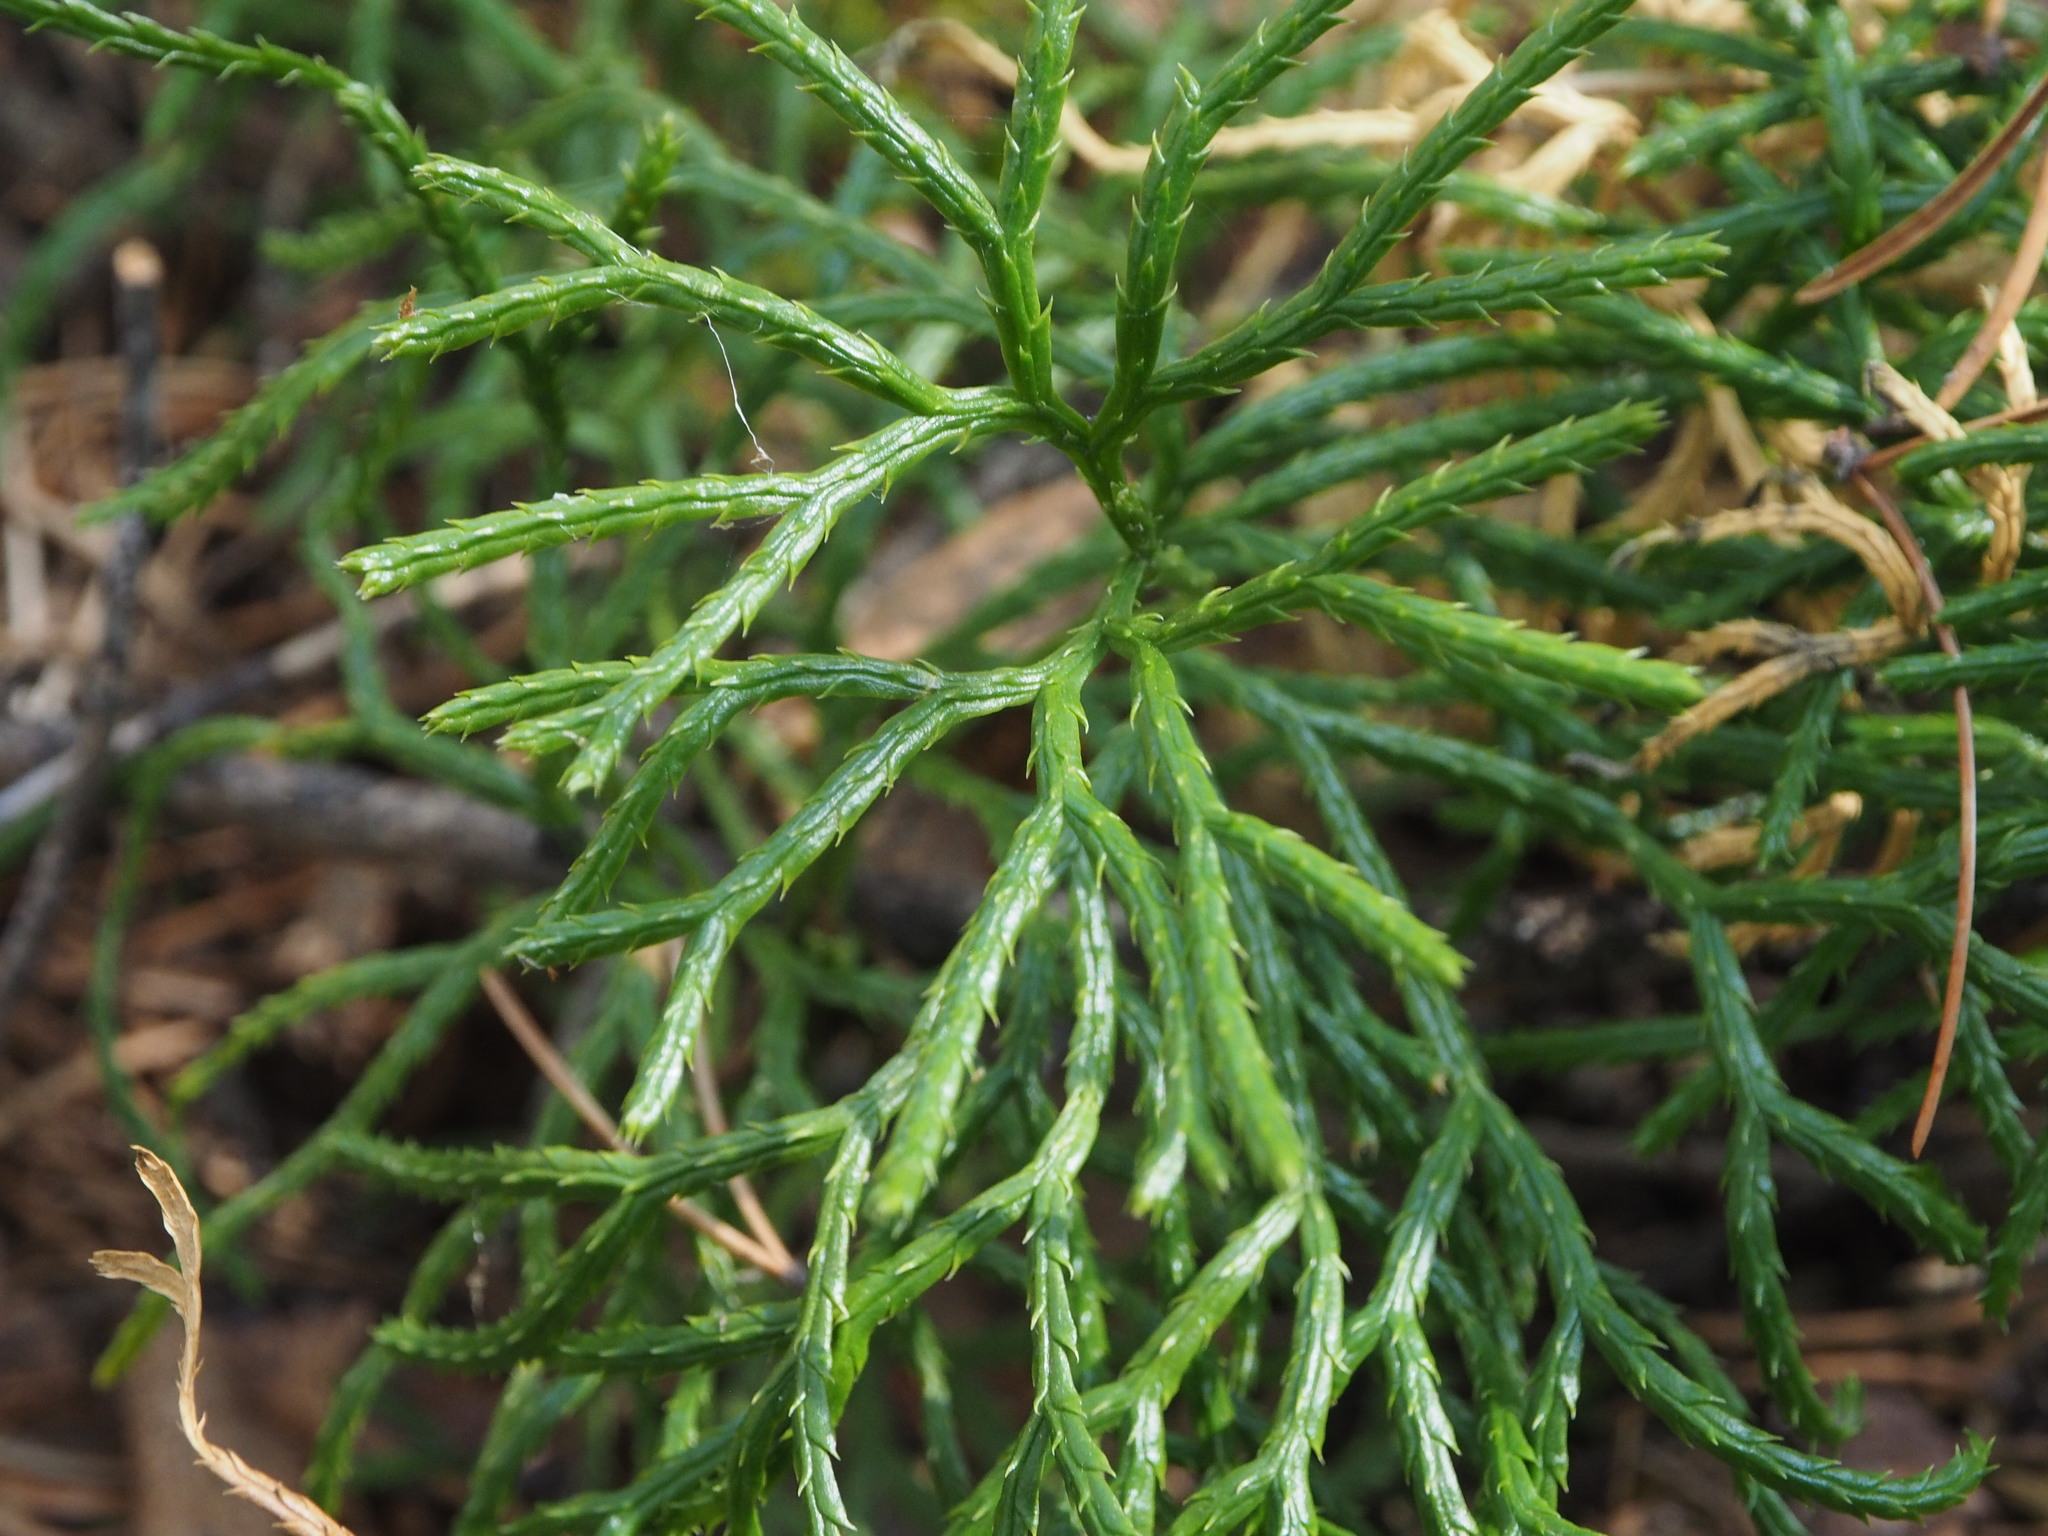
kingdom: Plantae
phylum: Tracheophyta
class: Lycopodiopsida
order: Lycopodiales
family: Lycopodiaceae
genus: Diphasiastrum
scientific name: Diphasiastrum complanatum
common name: Northern running-pine
